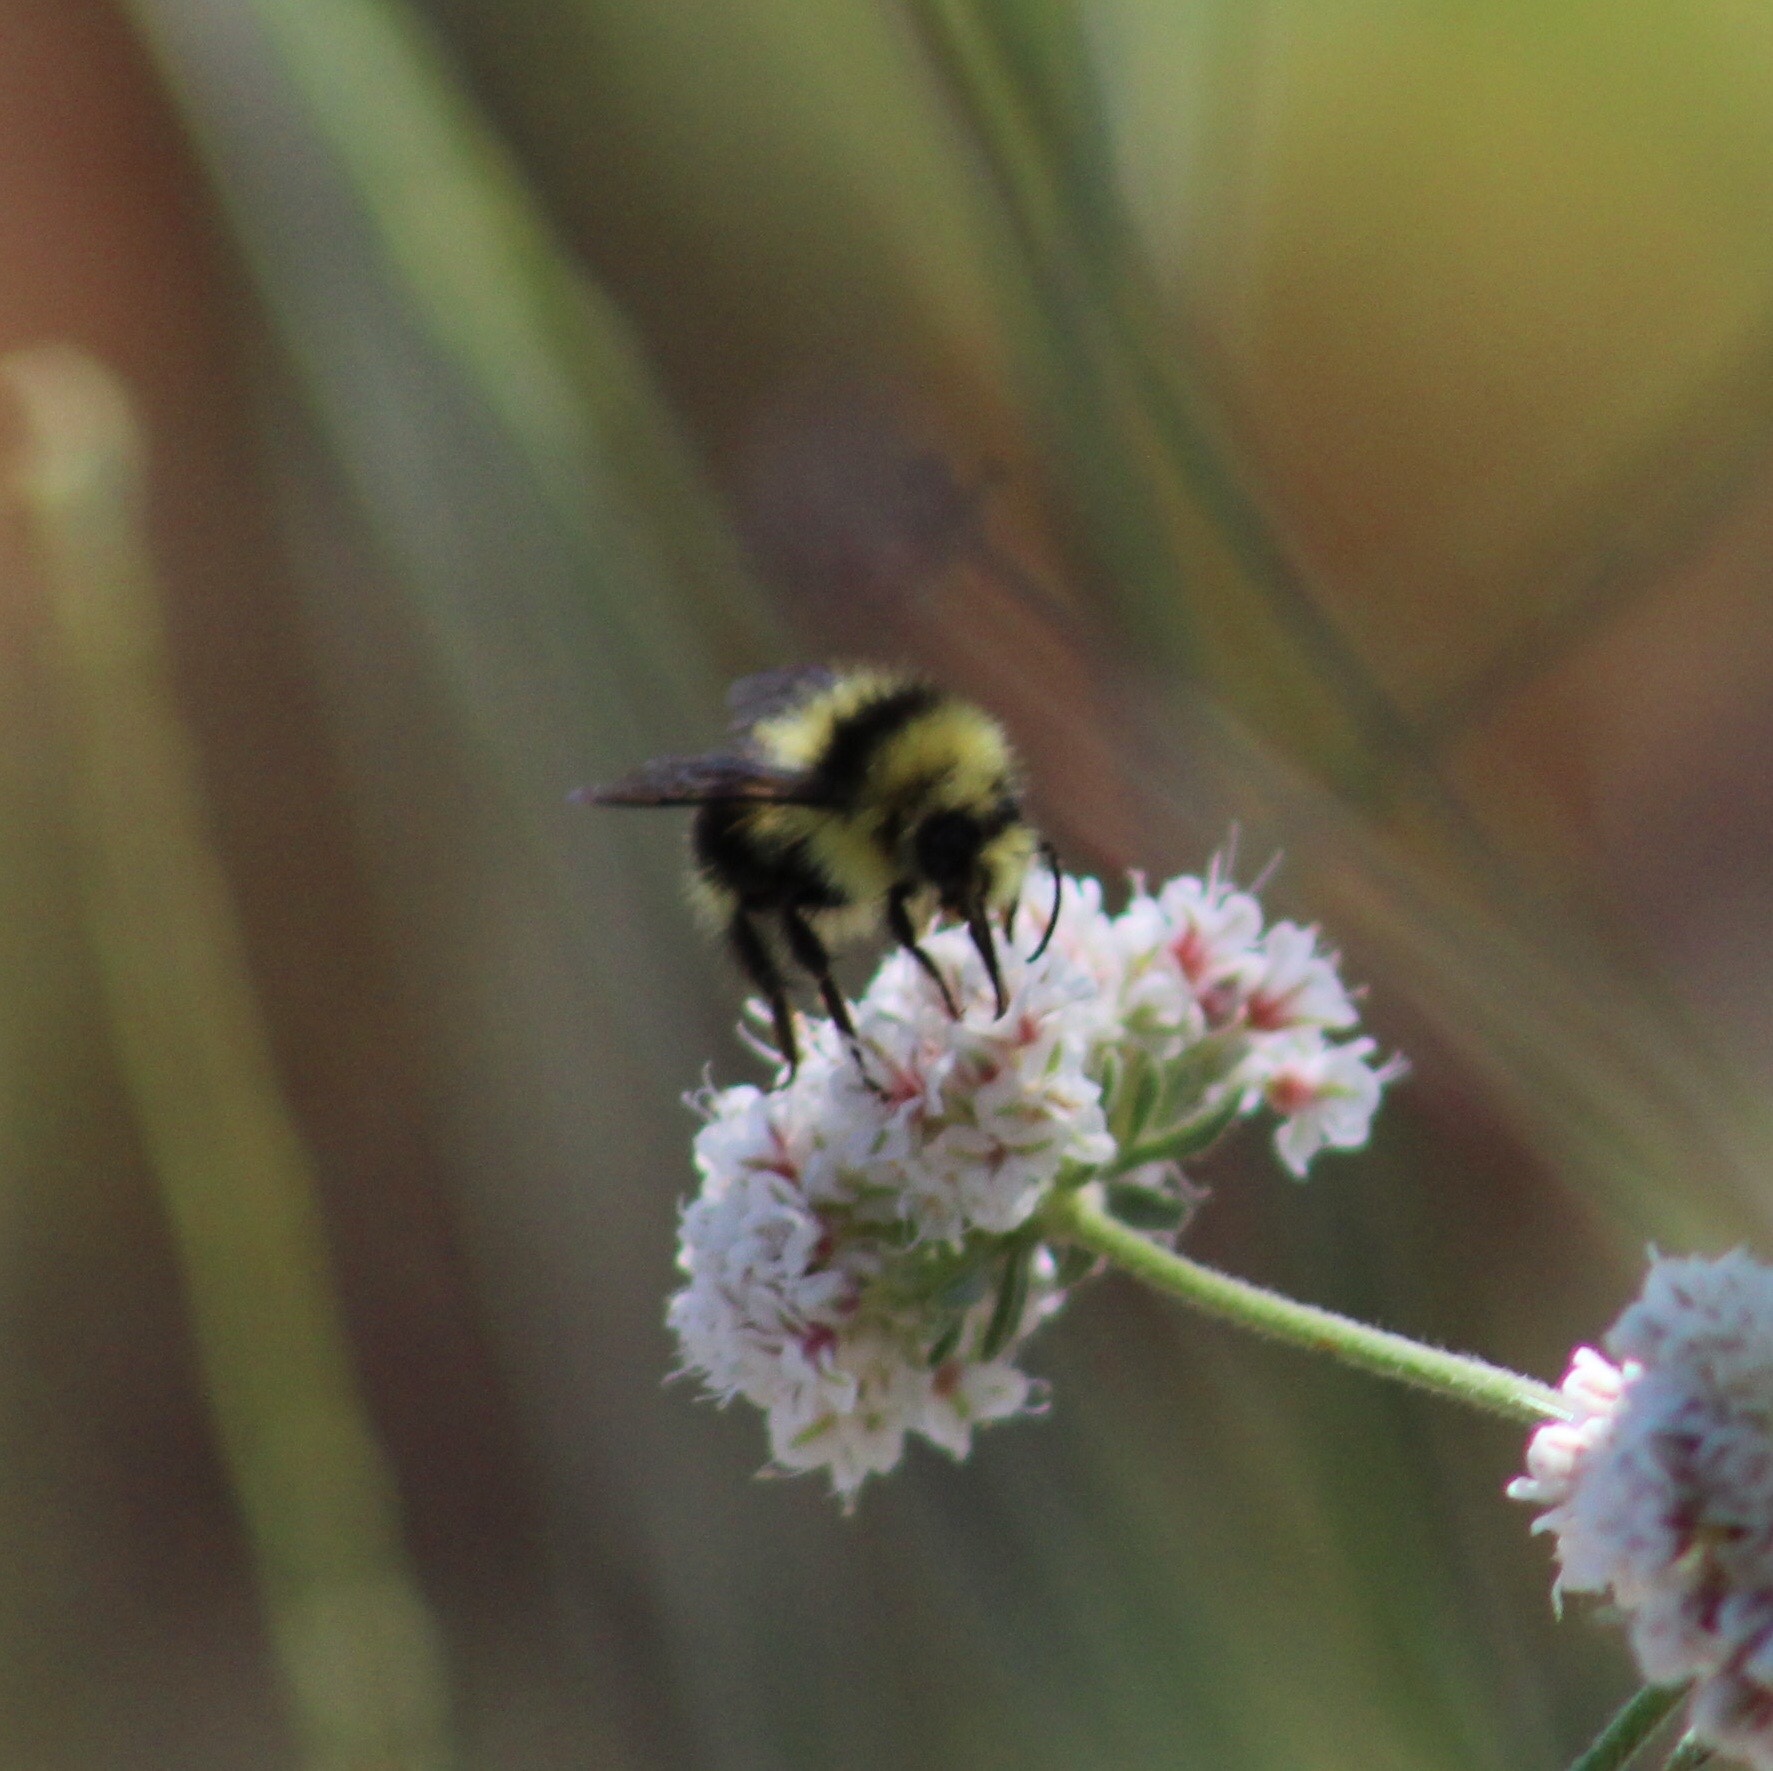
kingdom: Animalia
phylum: Arthropoda
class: Insecta
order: Hymenoptera
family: Apidae
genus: Bombus
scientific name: Bombus melanopygus
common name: Black tail bumble bee
